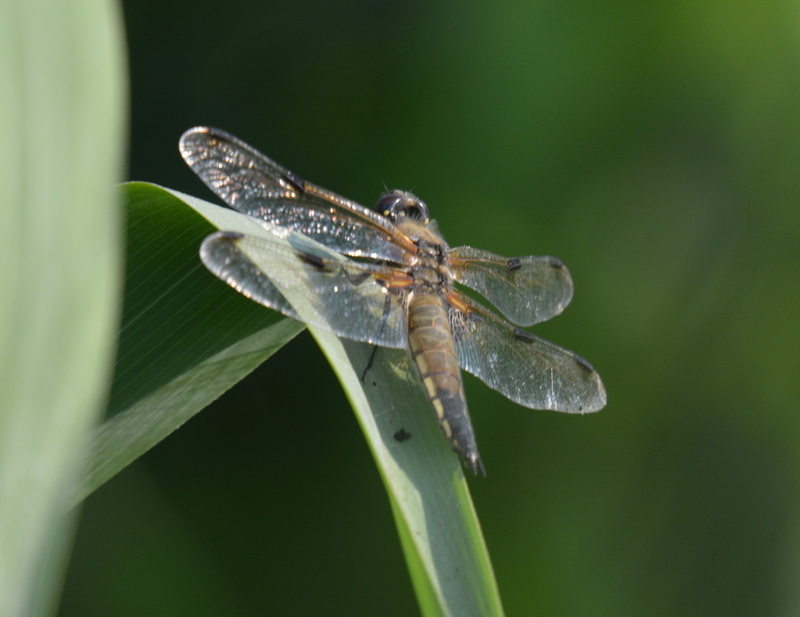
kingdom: Animalia
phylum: Arthropoda
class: Insecta
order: Odonata
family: Libellulidae
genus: Libellula
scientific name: Libellula quadrimaculata
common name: Four-spotted chaser
